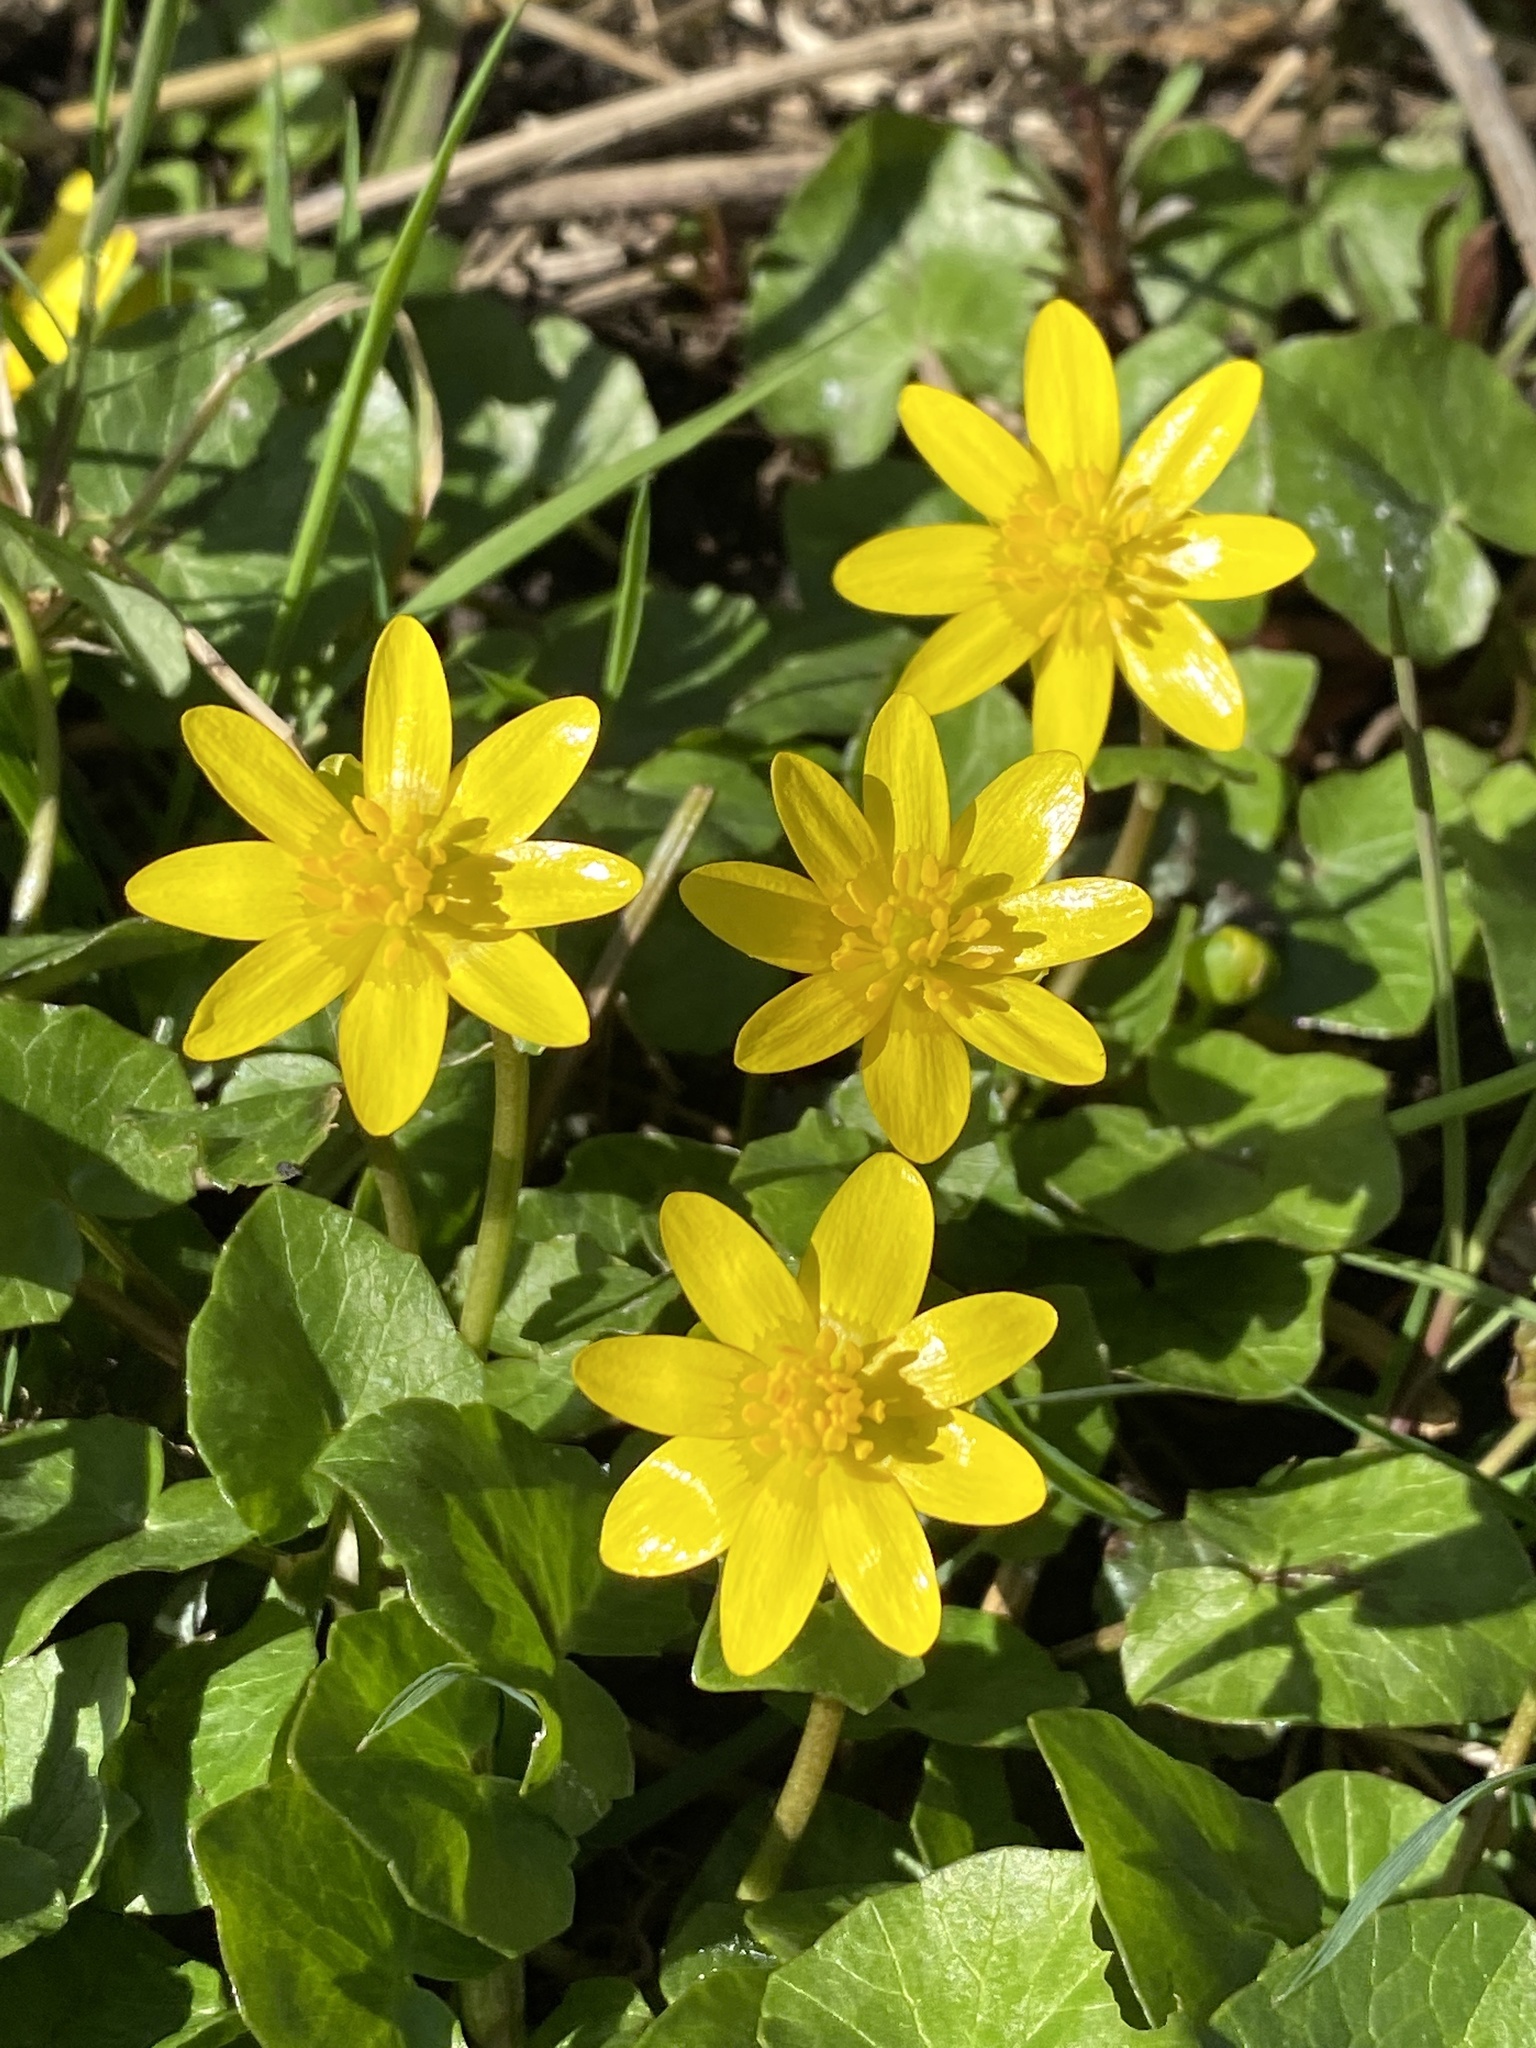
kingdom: Plantae
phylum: Tracheophyta
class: Magnoliopsida
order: Ranunculales
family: Ranunculaceae
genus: Ficaria
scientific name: Ficaria verna
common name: Lesser celandine
